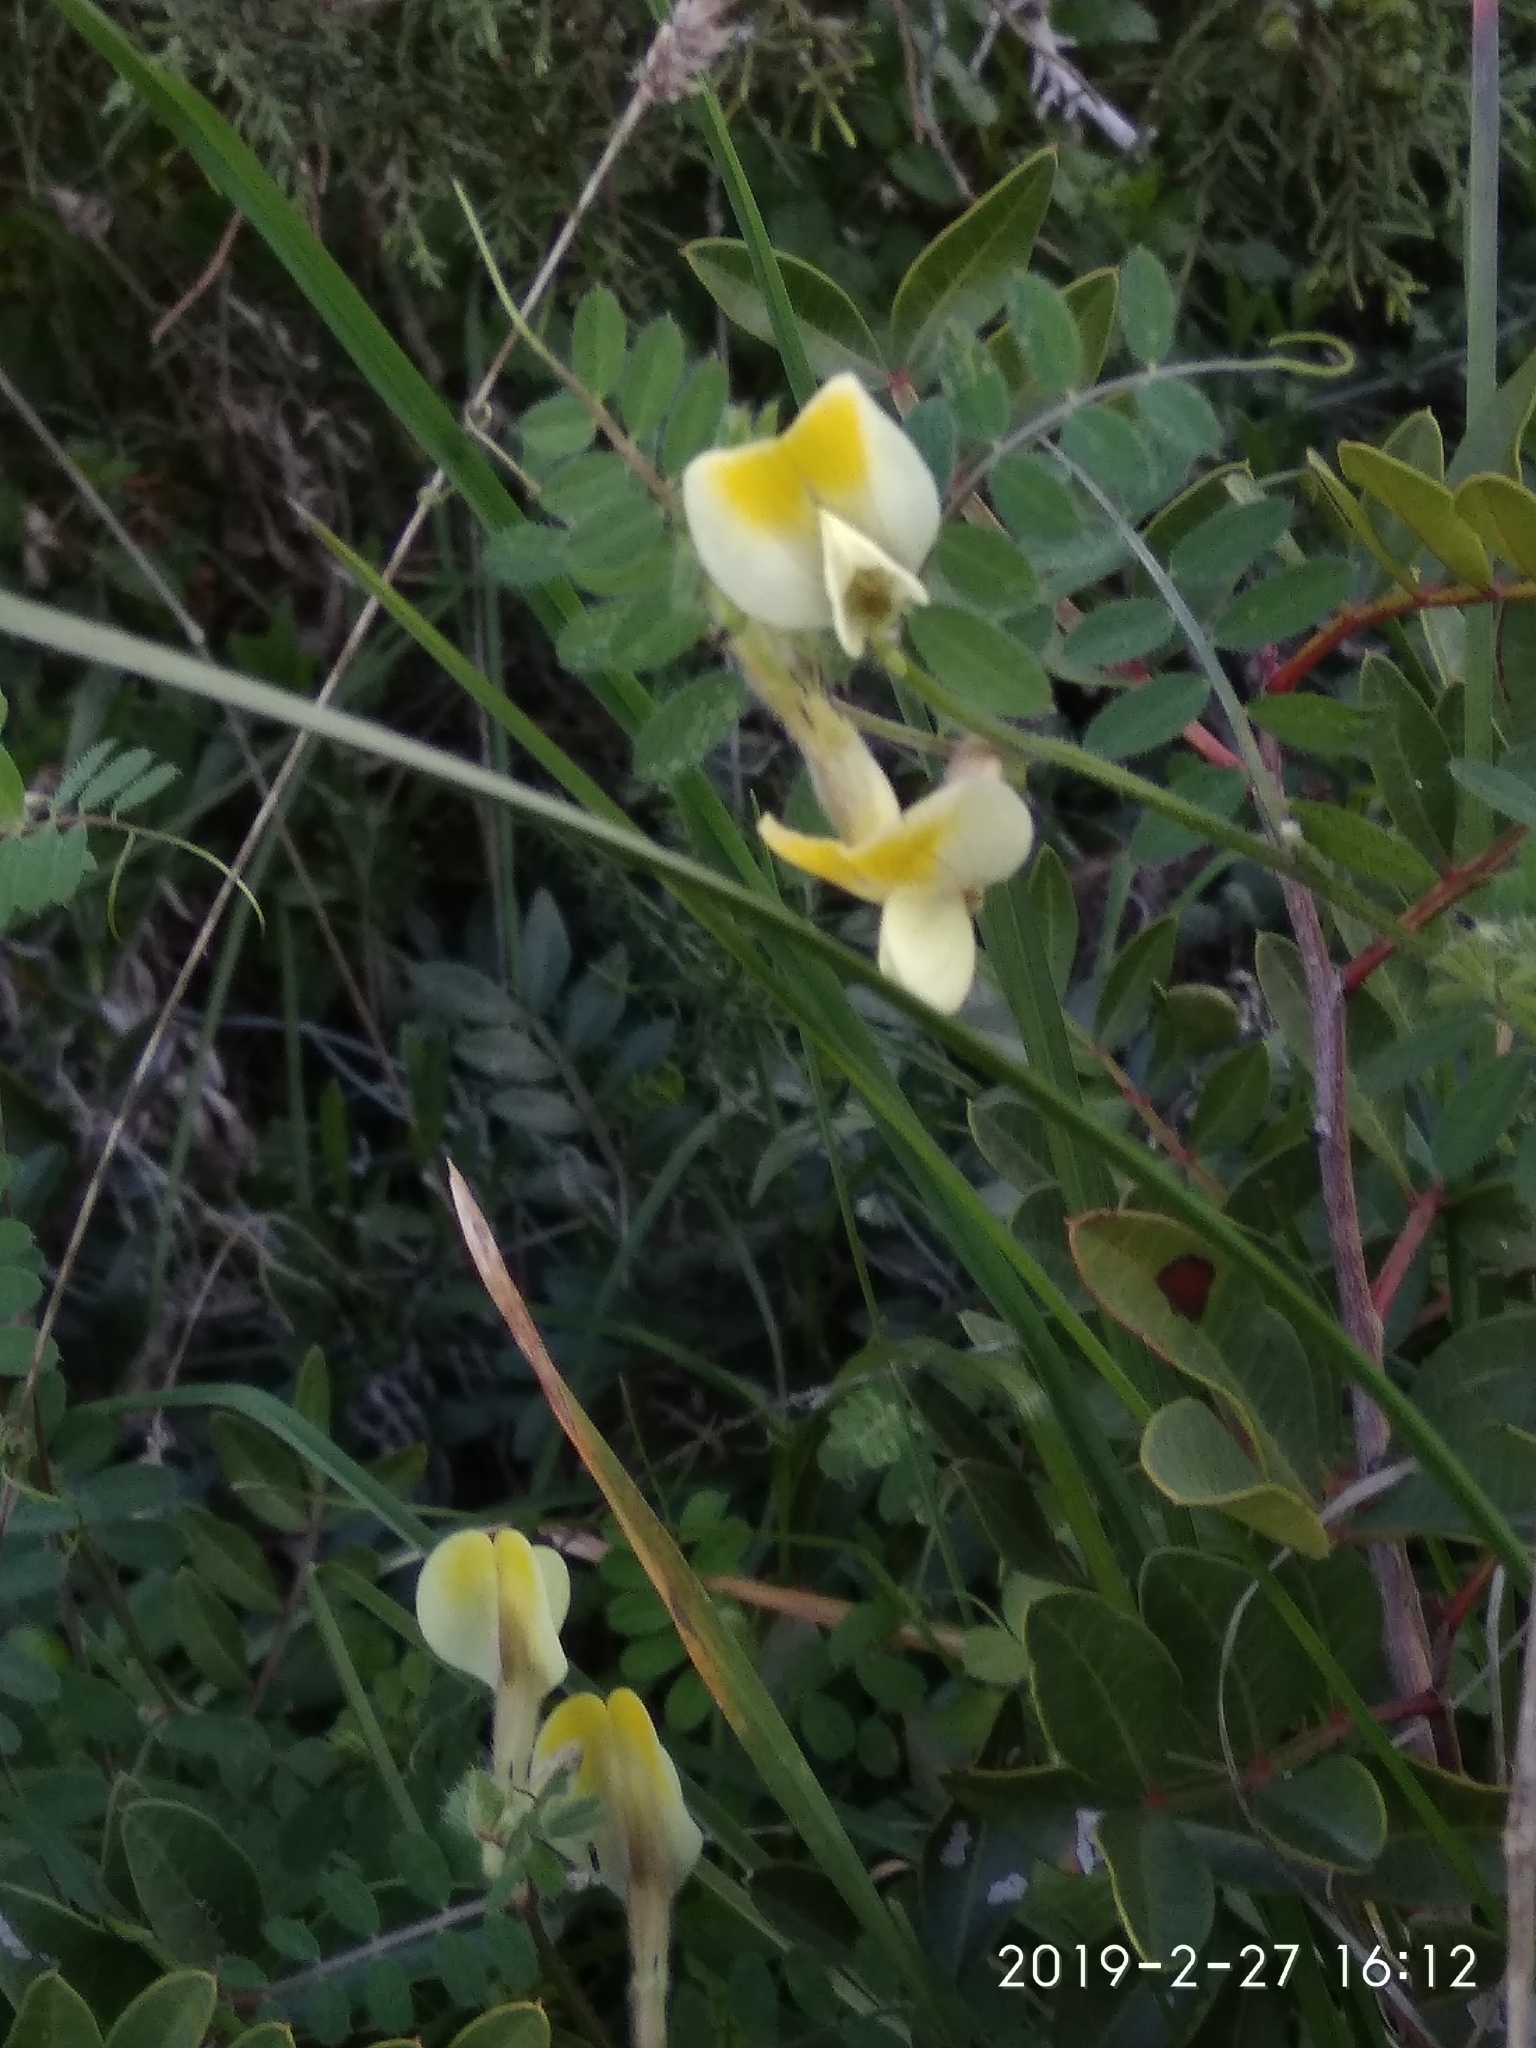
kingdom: Plantae
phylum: Tracheophyta
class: Magnoliopsida
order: Fabales
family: Fabaceae
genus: Vicia
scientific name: Vicia hybrida
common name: Hairy yellow vetch
